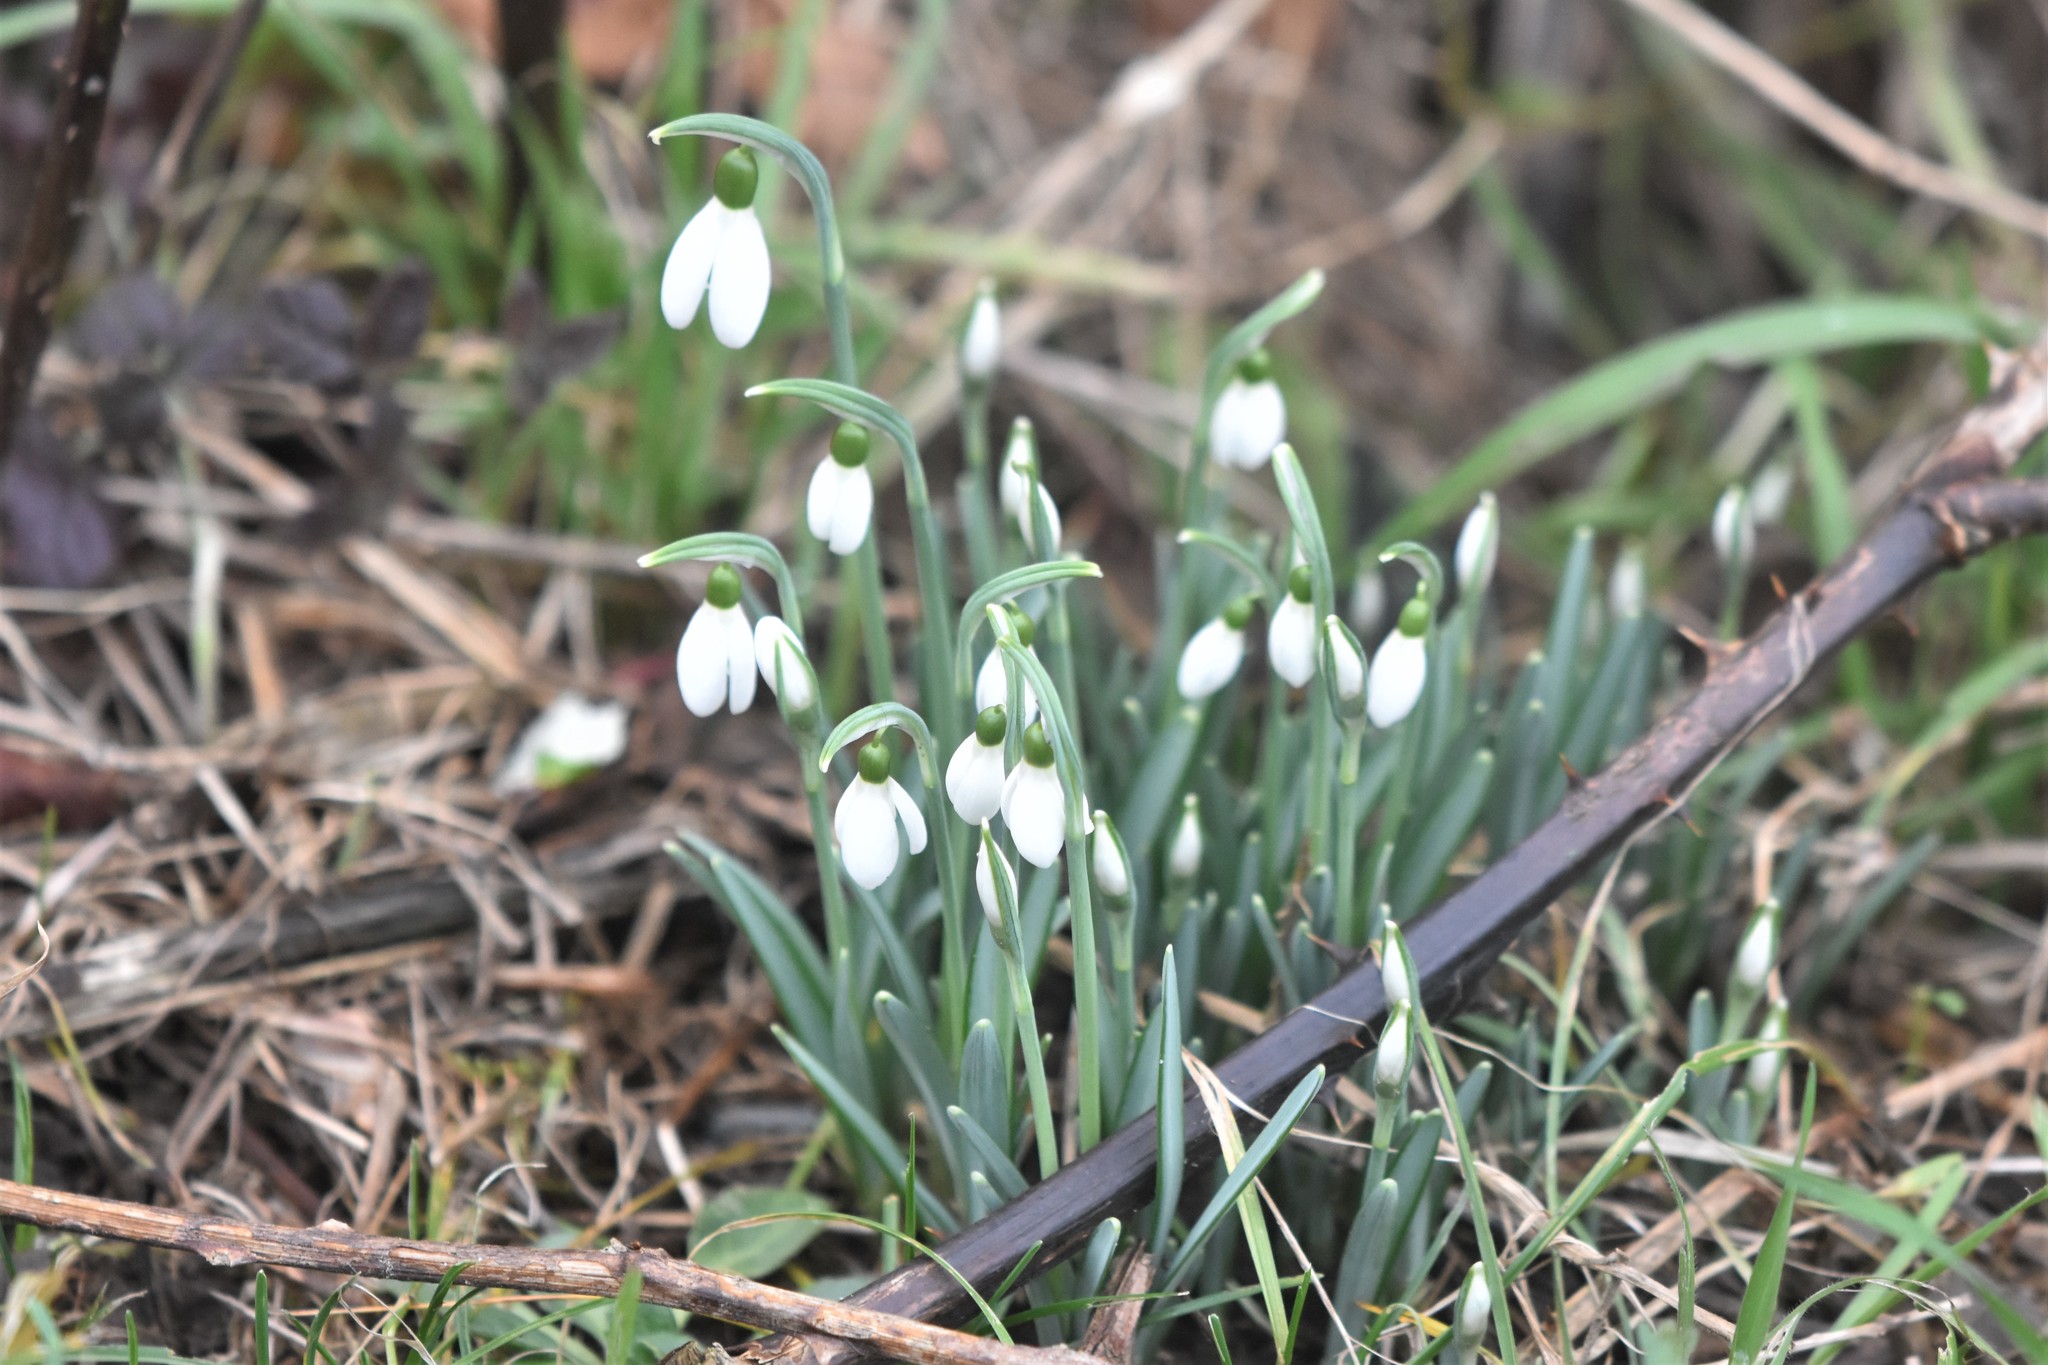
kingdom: Plantae
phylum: Tracheophyta
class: Liliopsida
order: Asparagales
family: Amaryllidaceae
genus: Galanthus
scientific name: Galanthus nivalis
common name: Snowdrop
